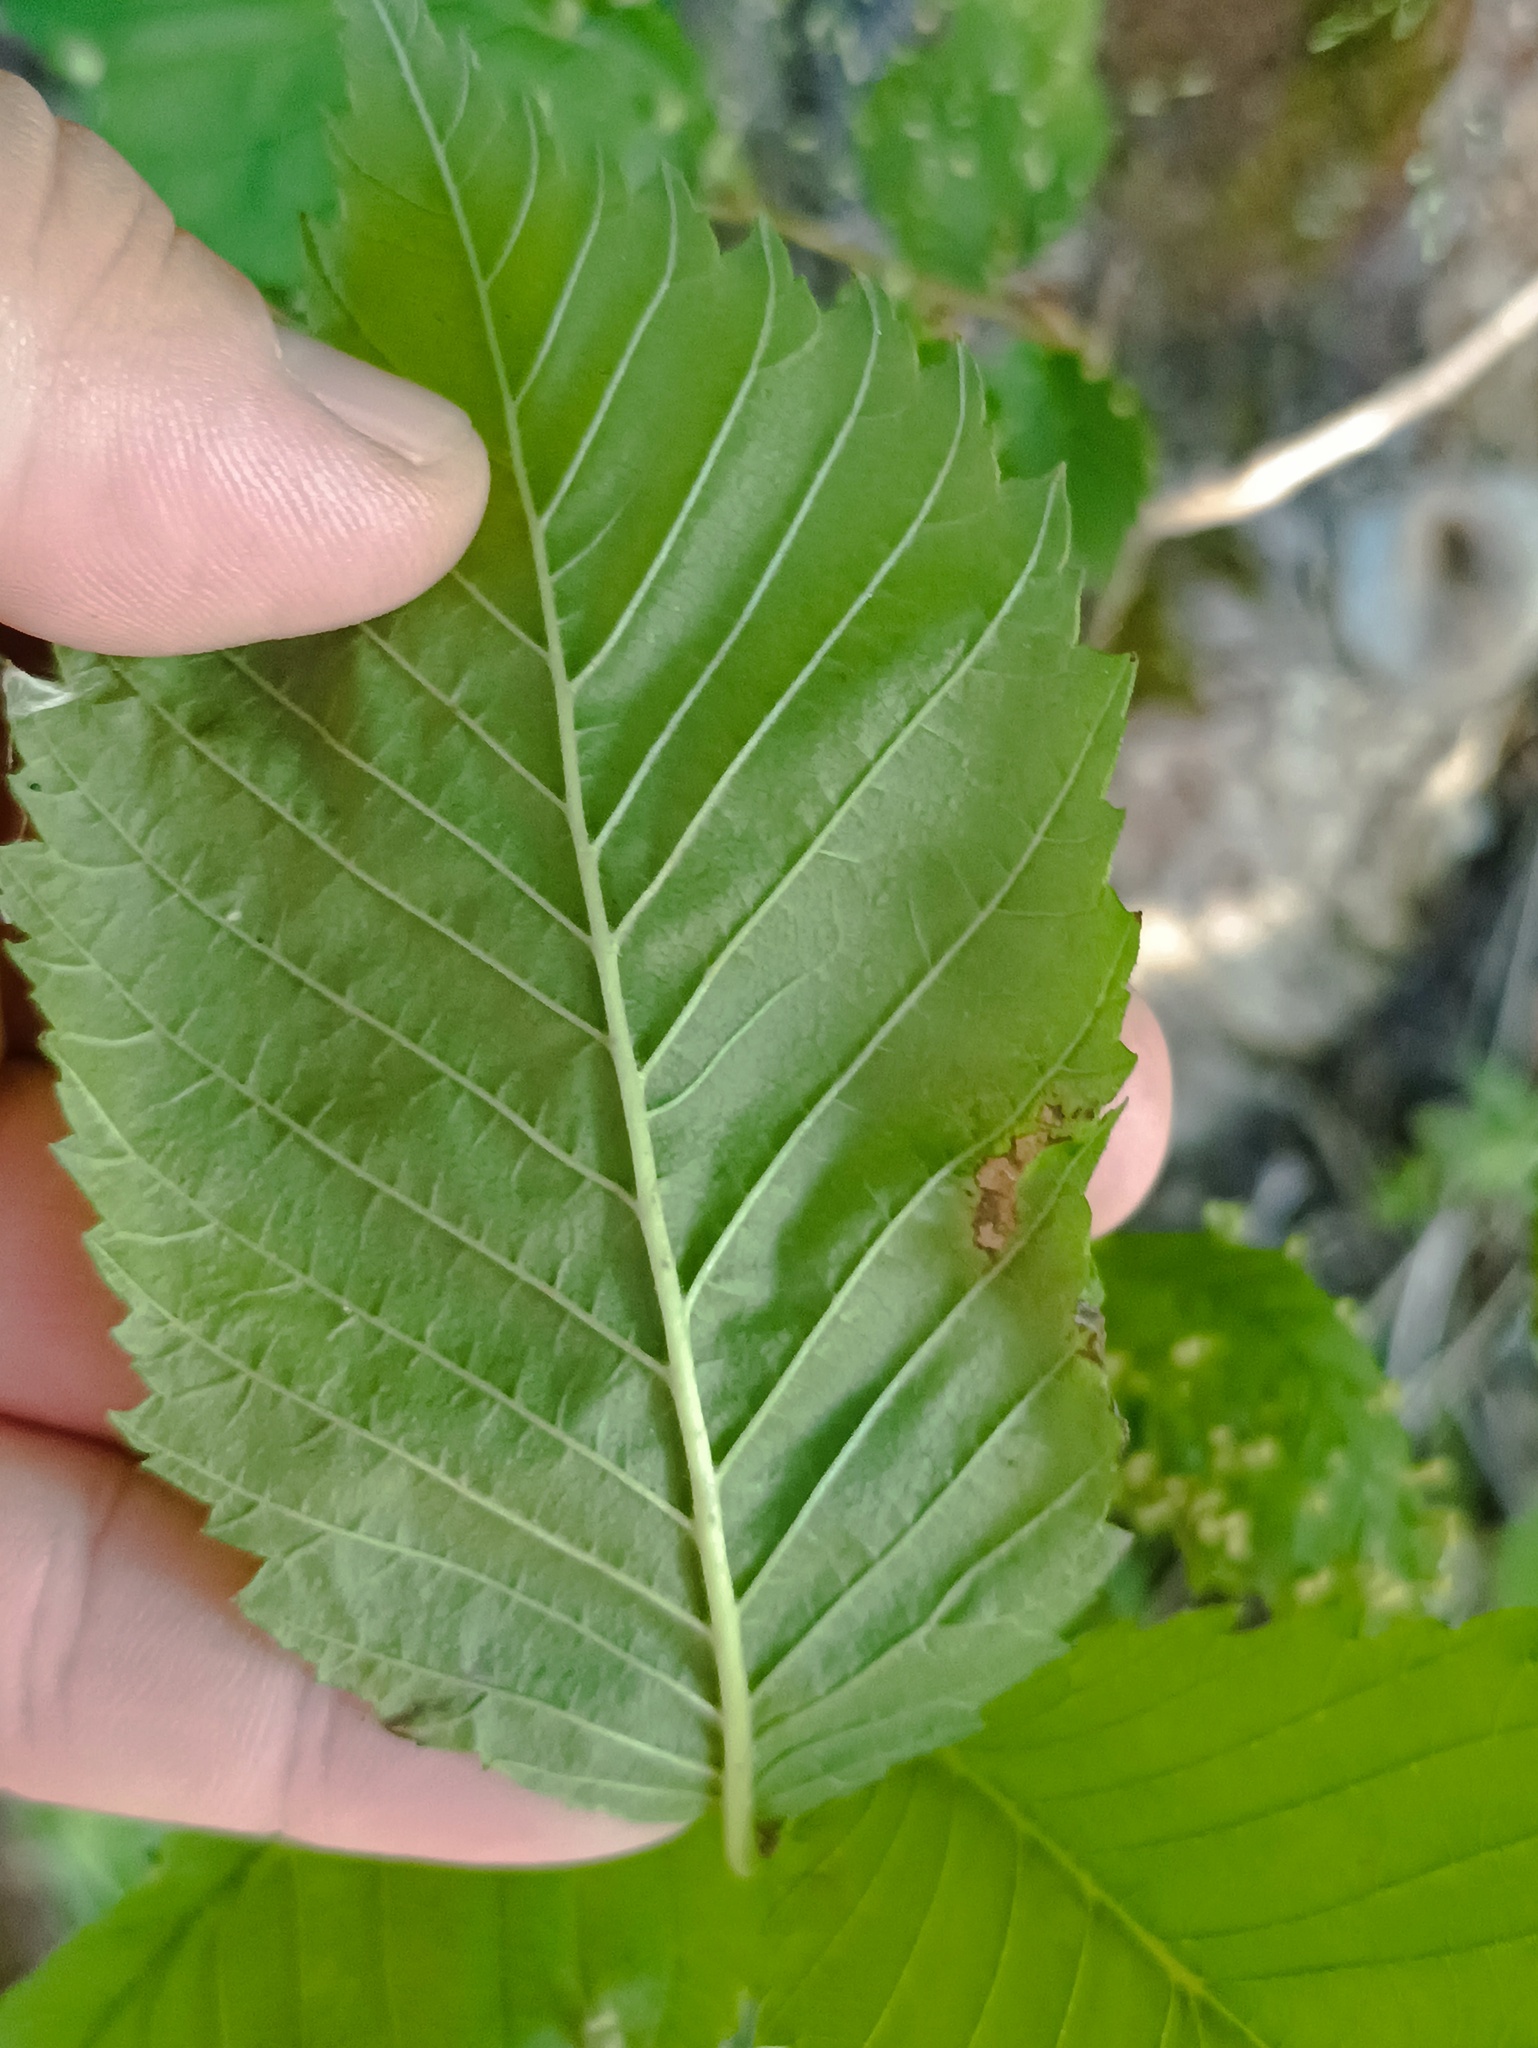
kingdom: Plantae
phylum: Tracheophyta
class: Magnoliopsida
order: Rosales
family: Ulmaceae
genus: Ulmus
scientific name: Ulmus laevis
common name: European white-elm
